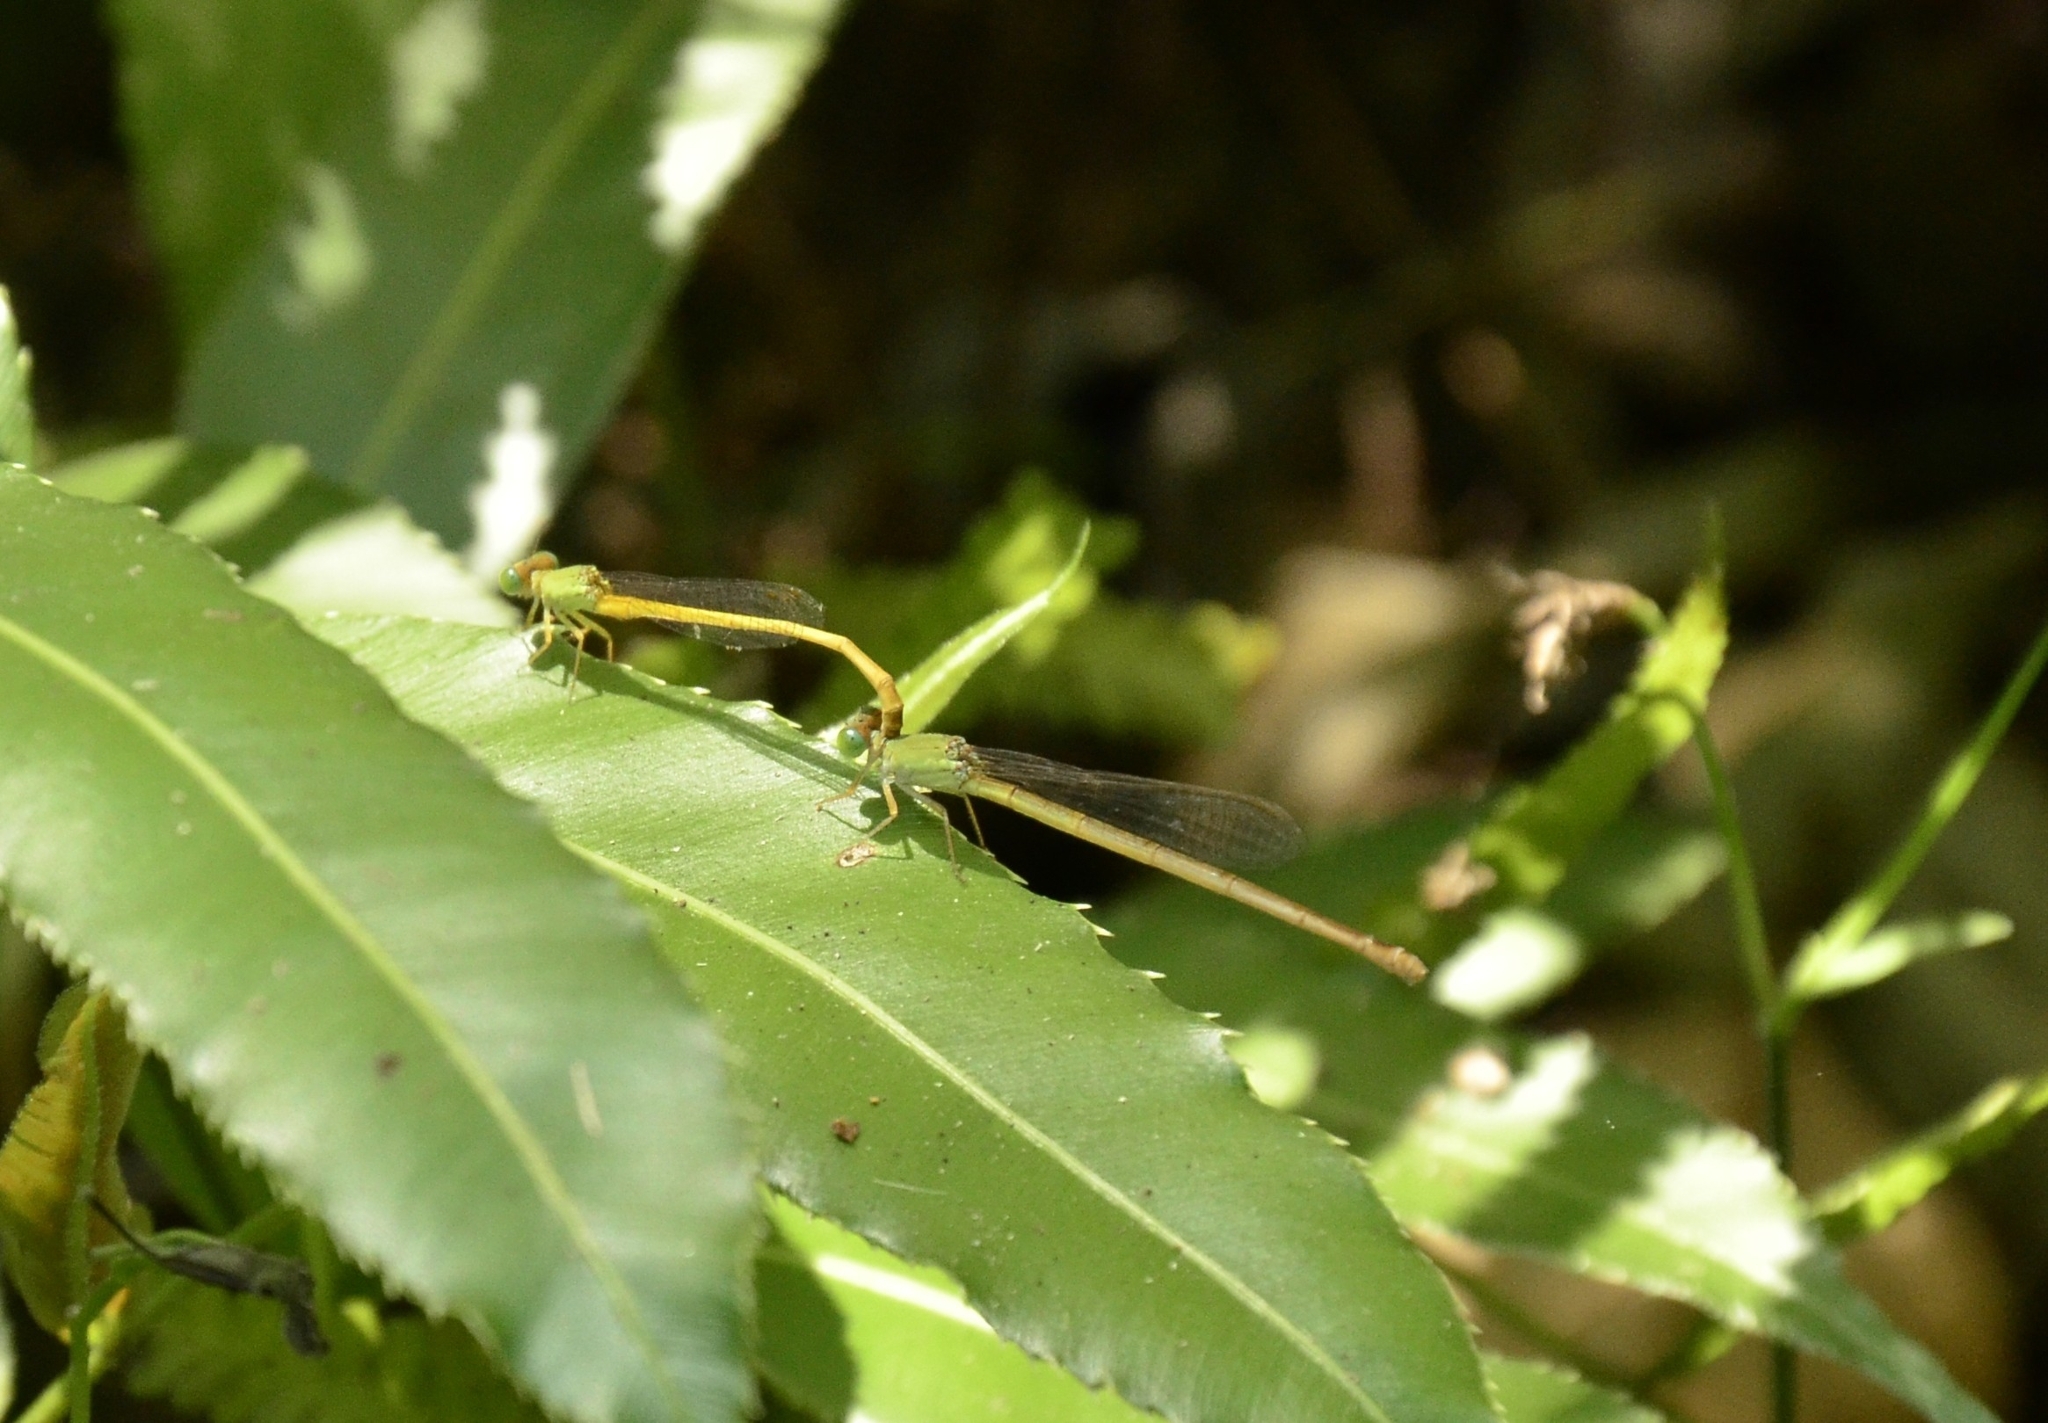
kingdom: Animalia
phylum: Arthropoda
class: Insecta
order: Odonata
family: Coenagrionidae
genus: Ceriagrion
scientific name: Ceriagrion coromandelianum
